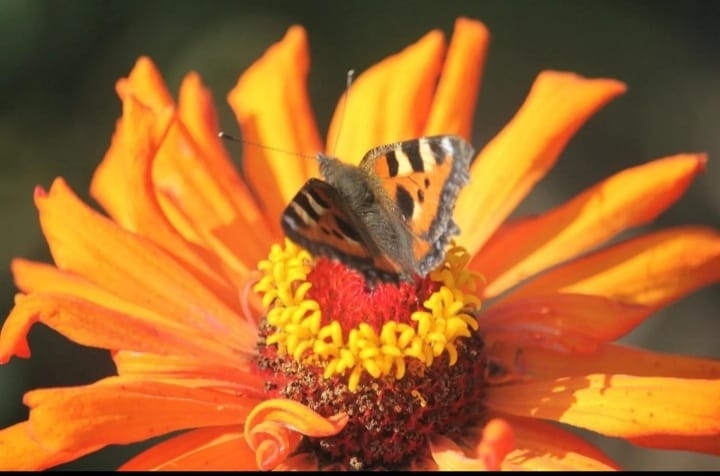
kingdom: Animalia
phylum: Arthropoda
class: Insecta
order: Lepidoptera
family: Nymphalidae
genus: Aglais
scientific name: Aglais urticae
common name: Small tortoiseshell
